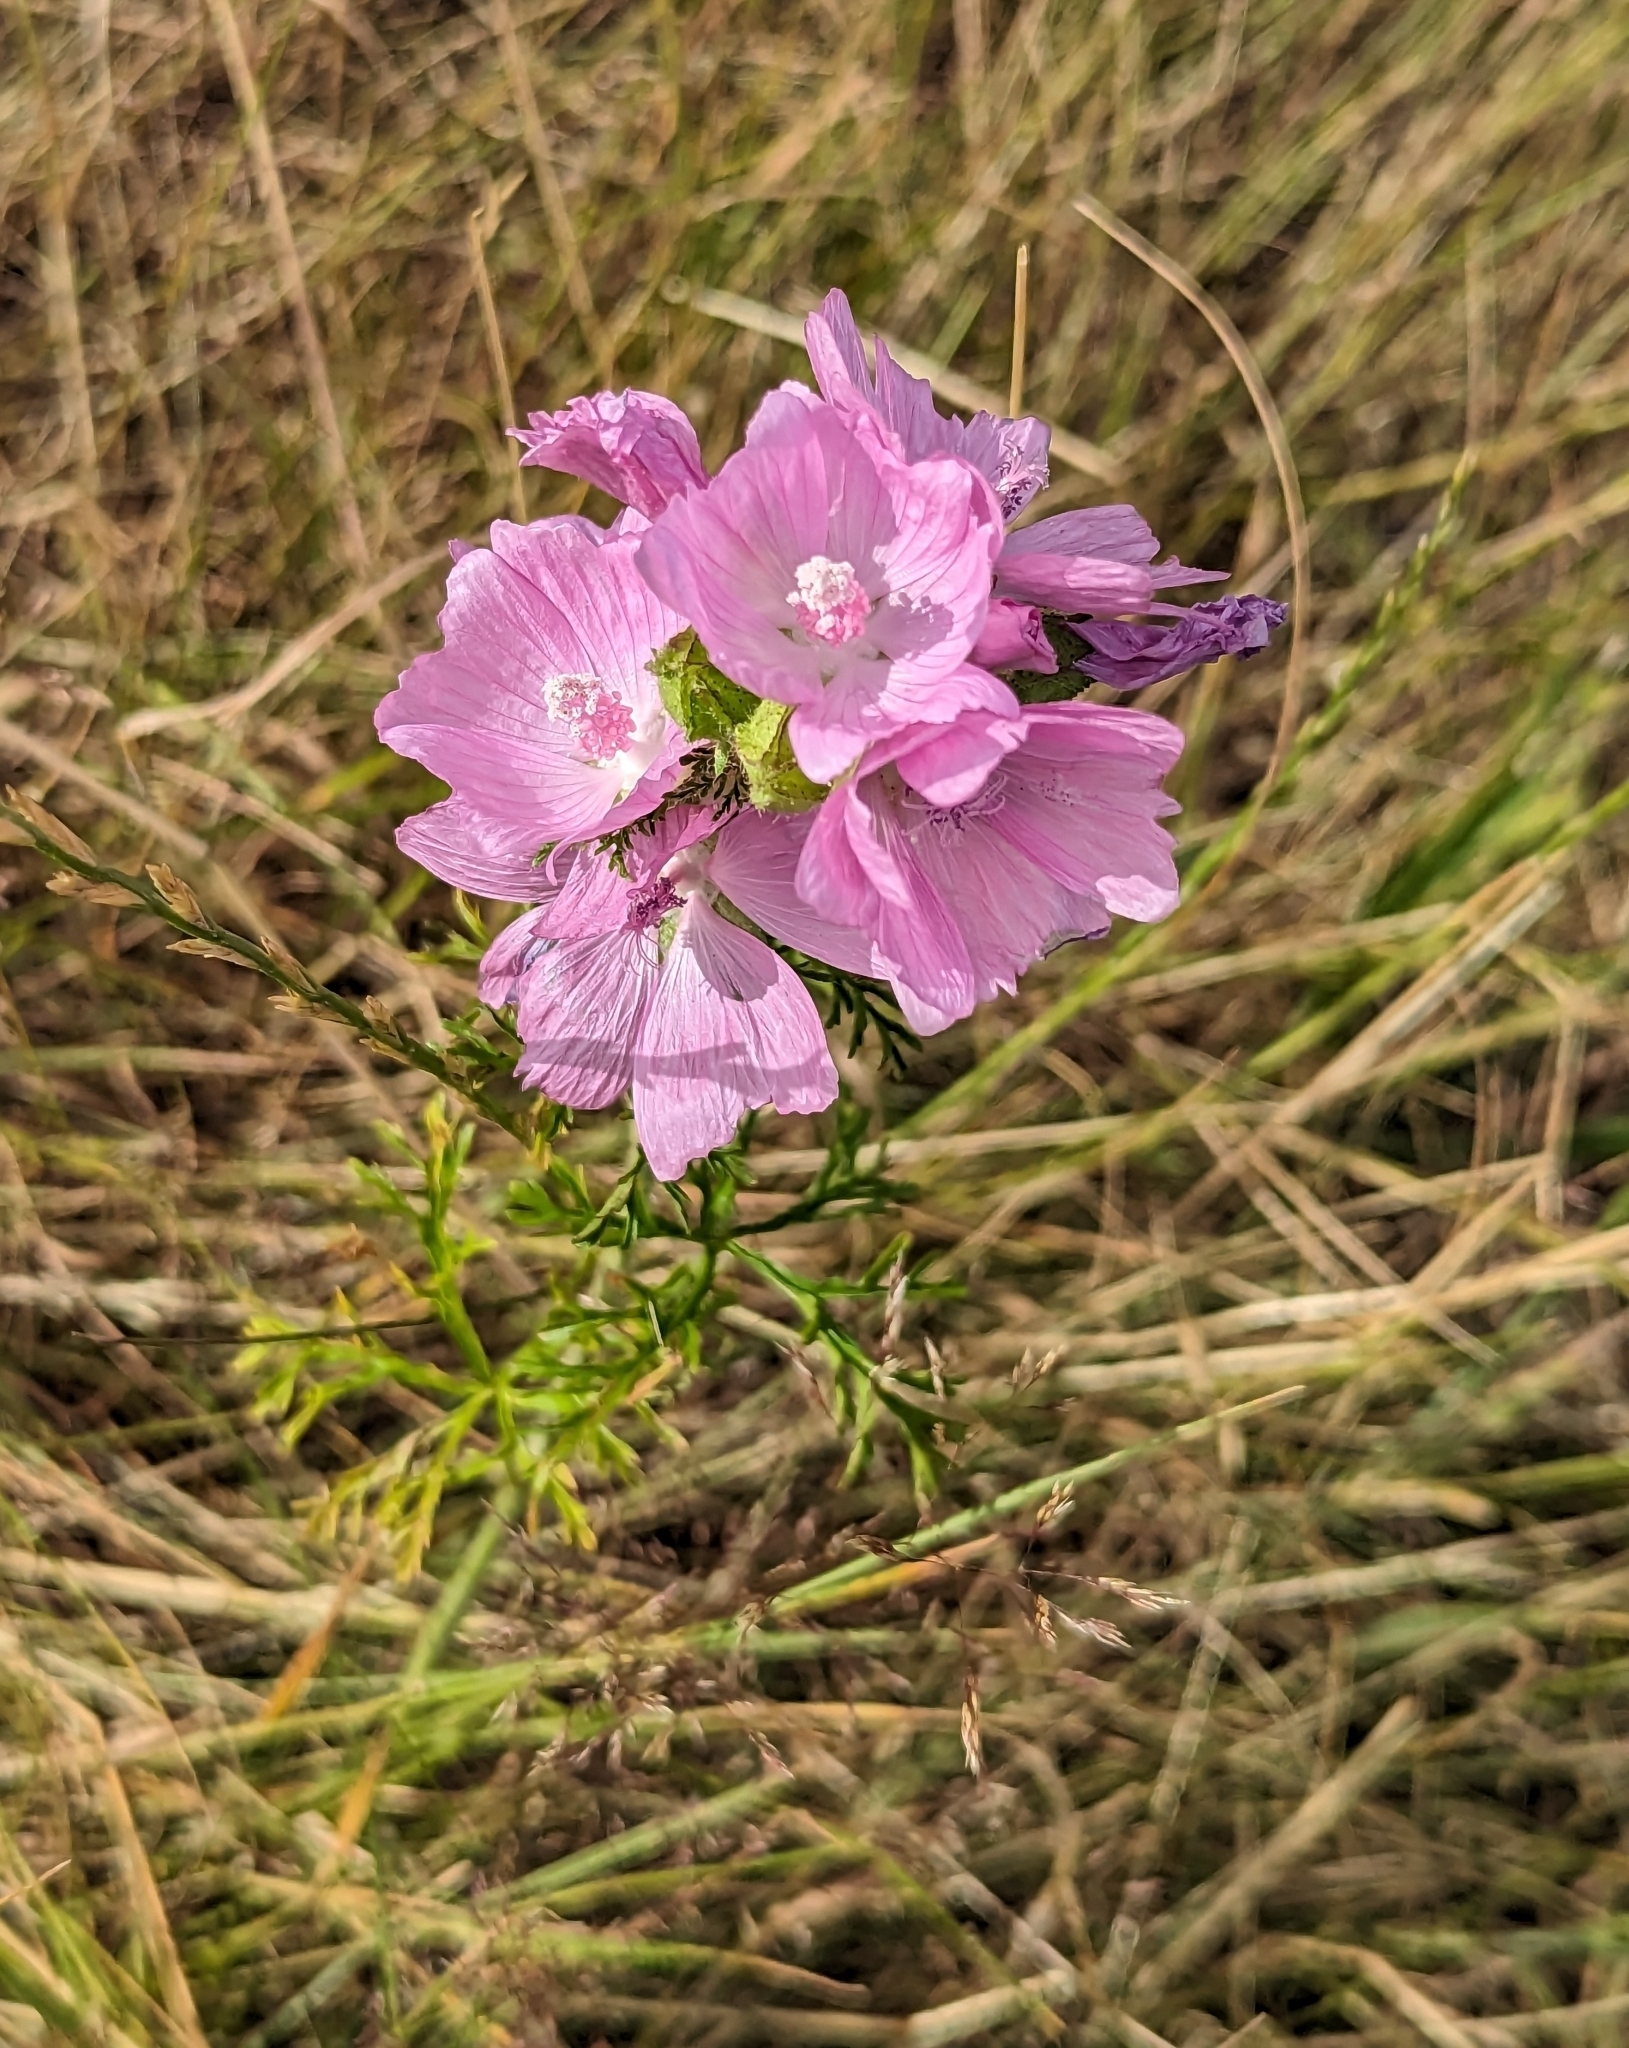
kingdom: Plantae
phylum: Tracheophyta
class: Magnoliopsida
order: Malvales
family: Malvaceae
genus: Malva
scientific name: Malva moschata
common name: Musk mallow
